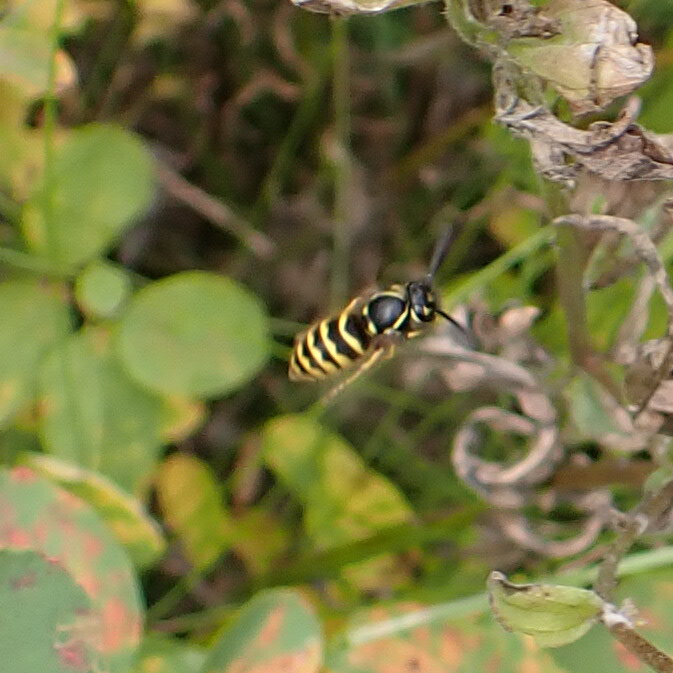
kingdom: Animalia
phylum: Arthropoda
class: Insecta
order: Hymenoptera
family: Vespidae
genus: Vespula
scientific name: Vespula alascensis
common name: Alaska yellowjacket
